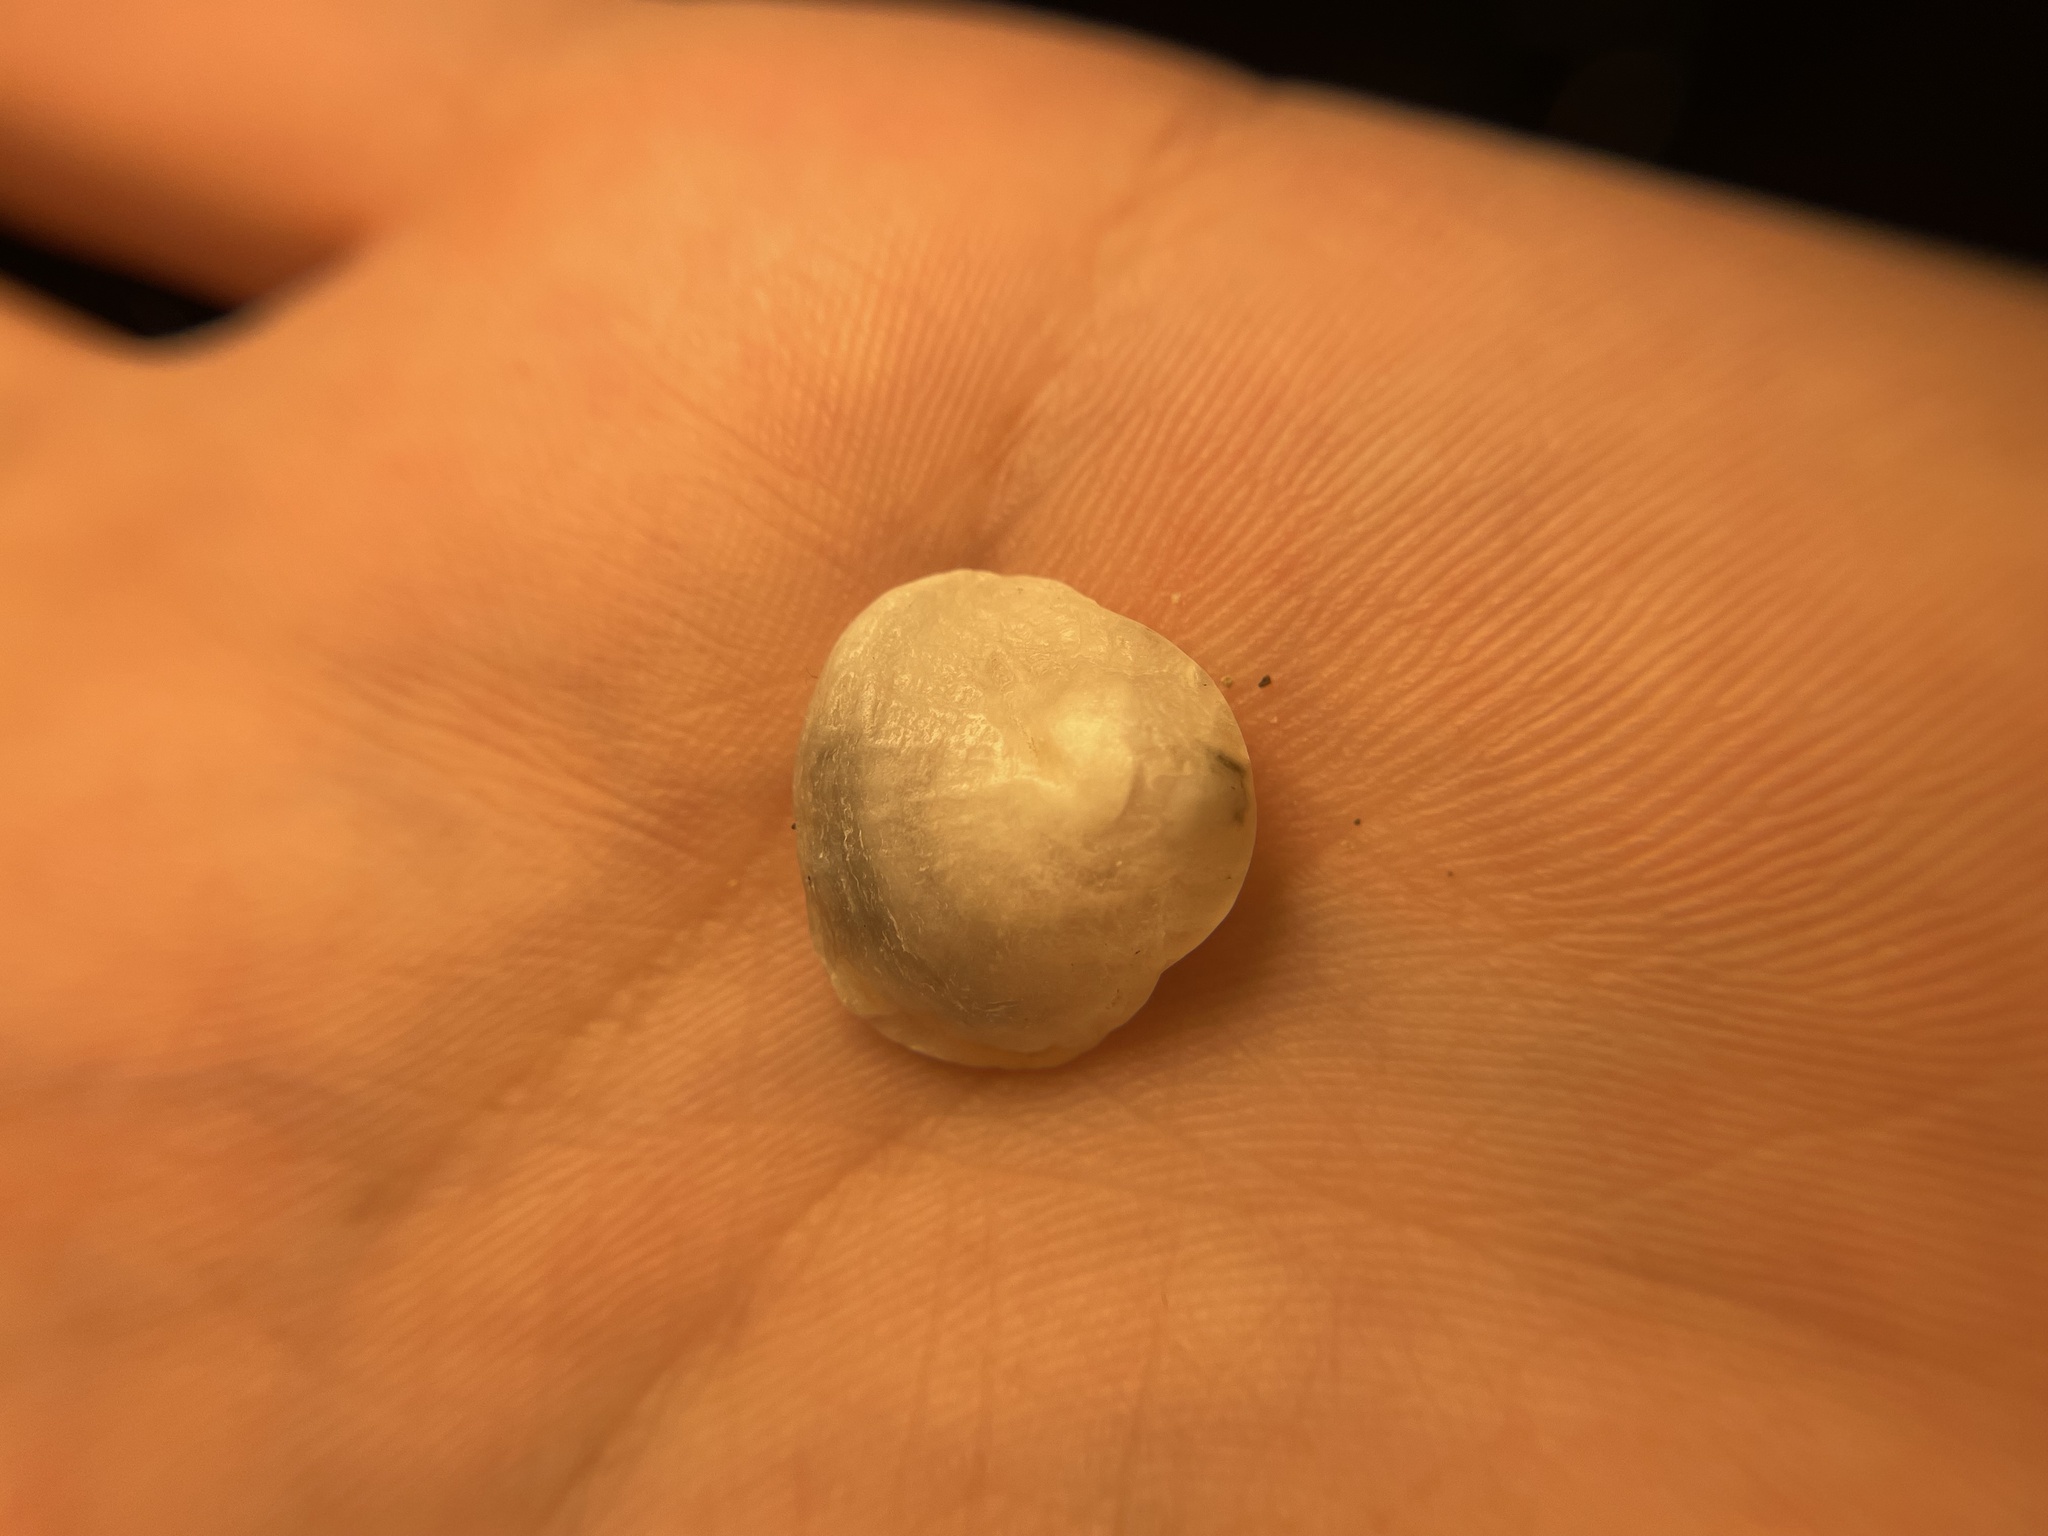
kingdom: Animalia
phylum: Mollusca
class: Bivalvia
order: Pectinida
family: Anomiidae
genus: Anomia
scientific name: Anomia ephippium
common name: Saddle oyster
